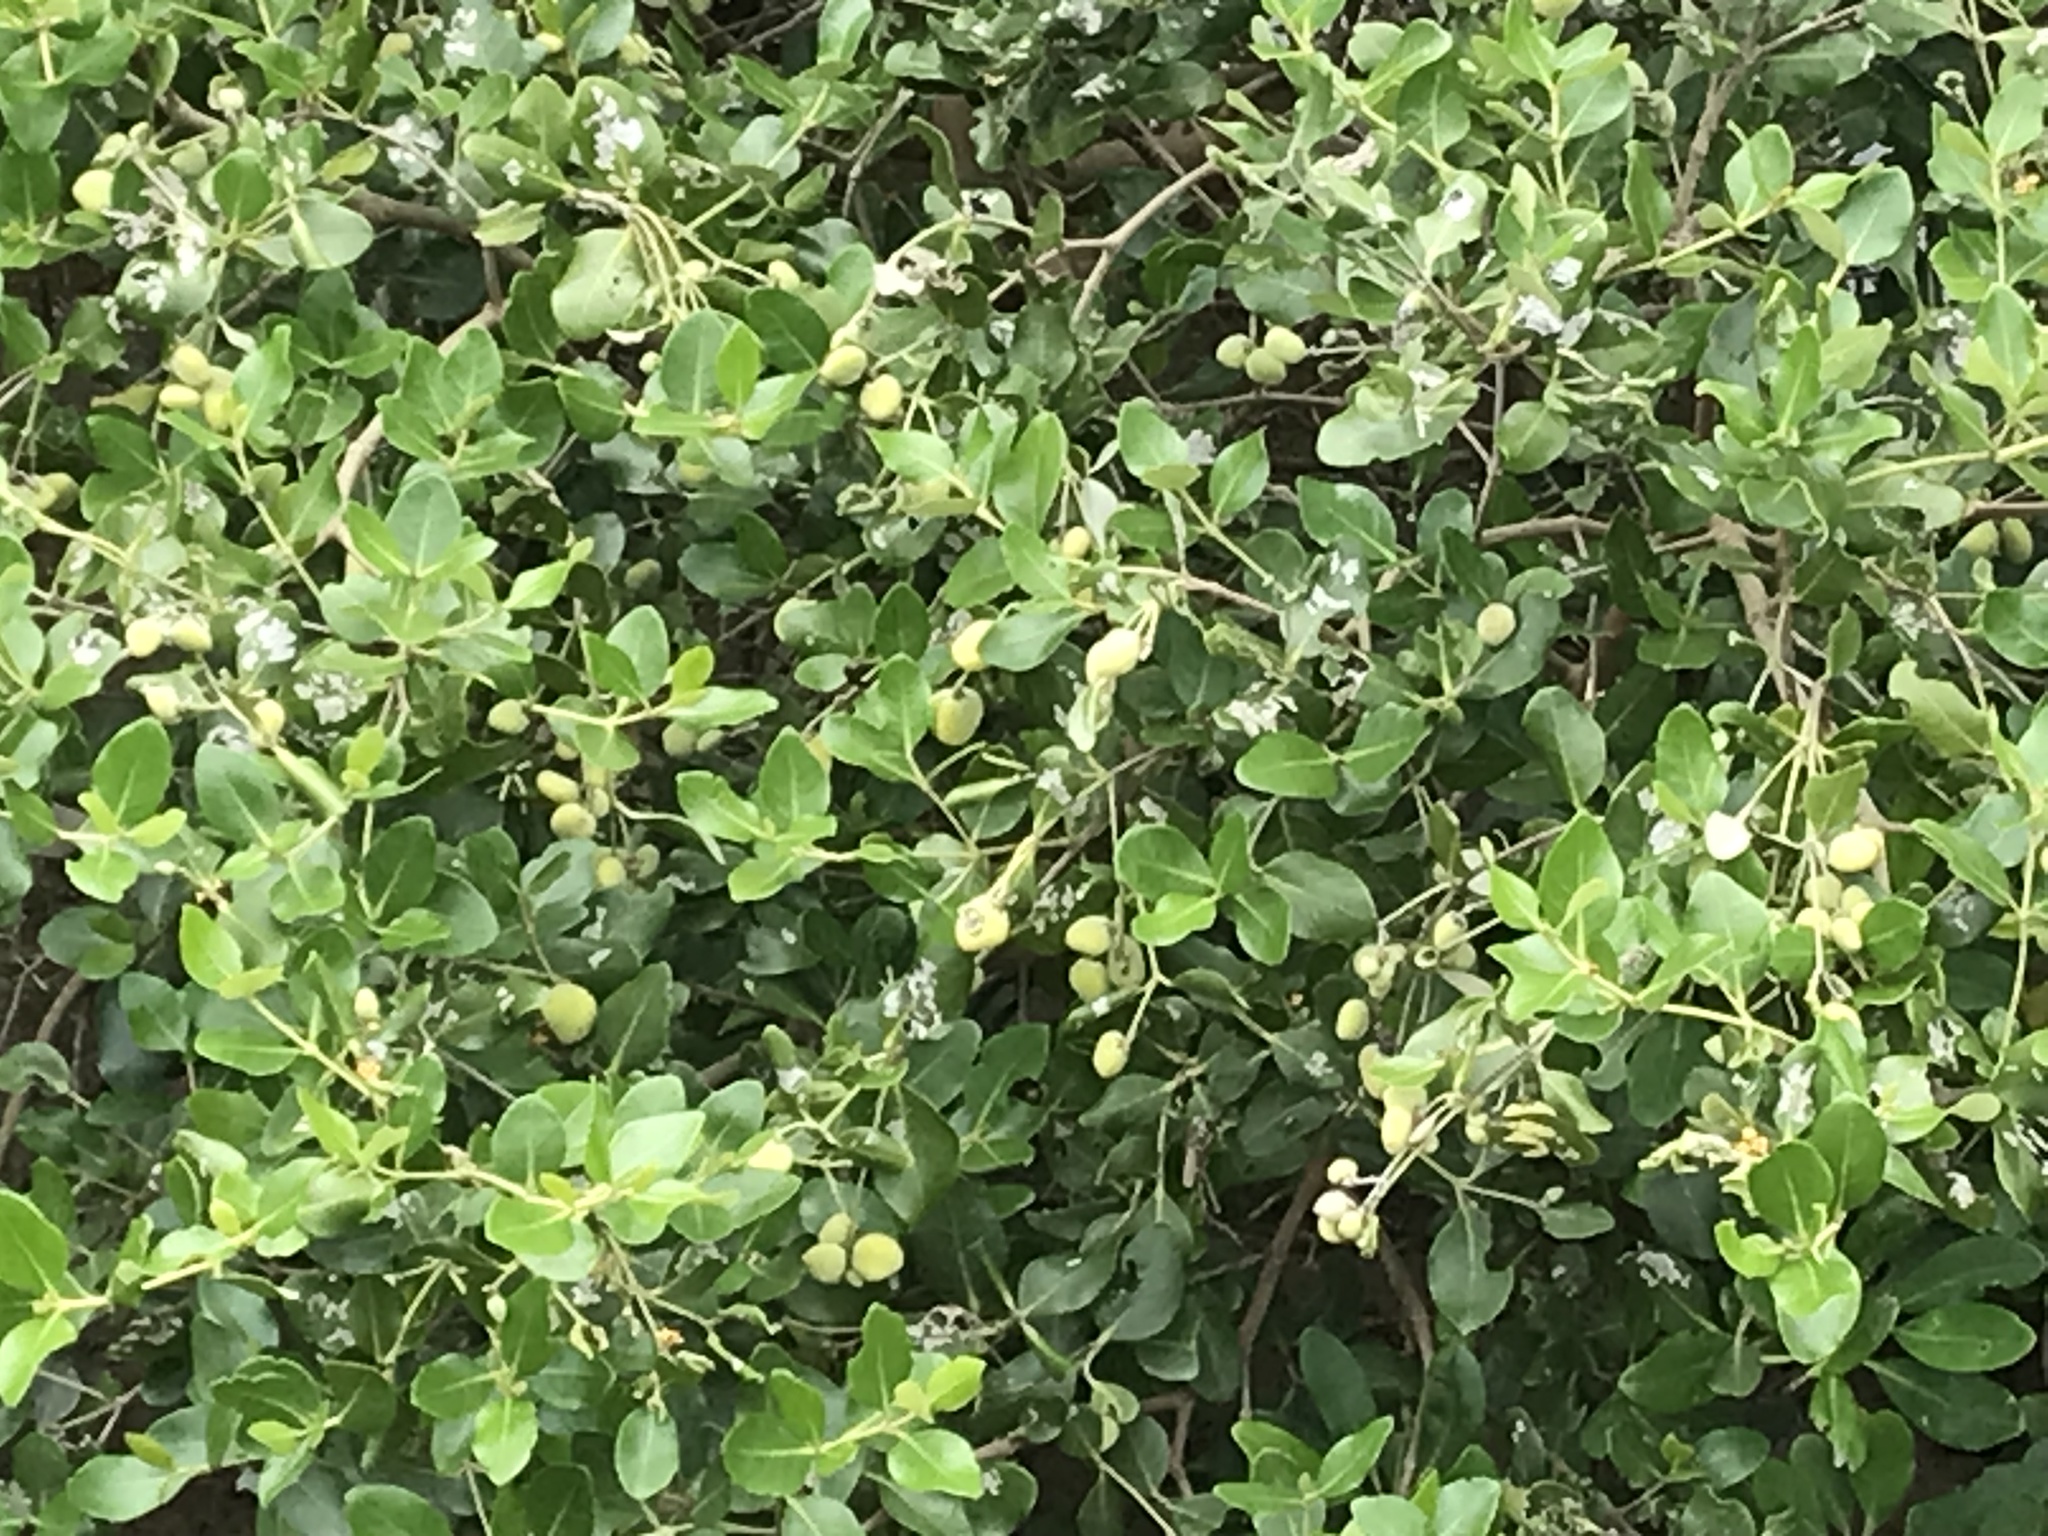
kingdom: Plantae
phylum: Tracheophyta
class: Magnoliopsida
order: Lamiales
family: Acanthaceae
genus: Avicennia
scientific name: Avicennia marina
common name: Gray mangrove
